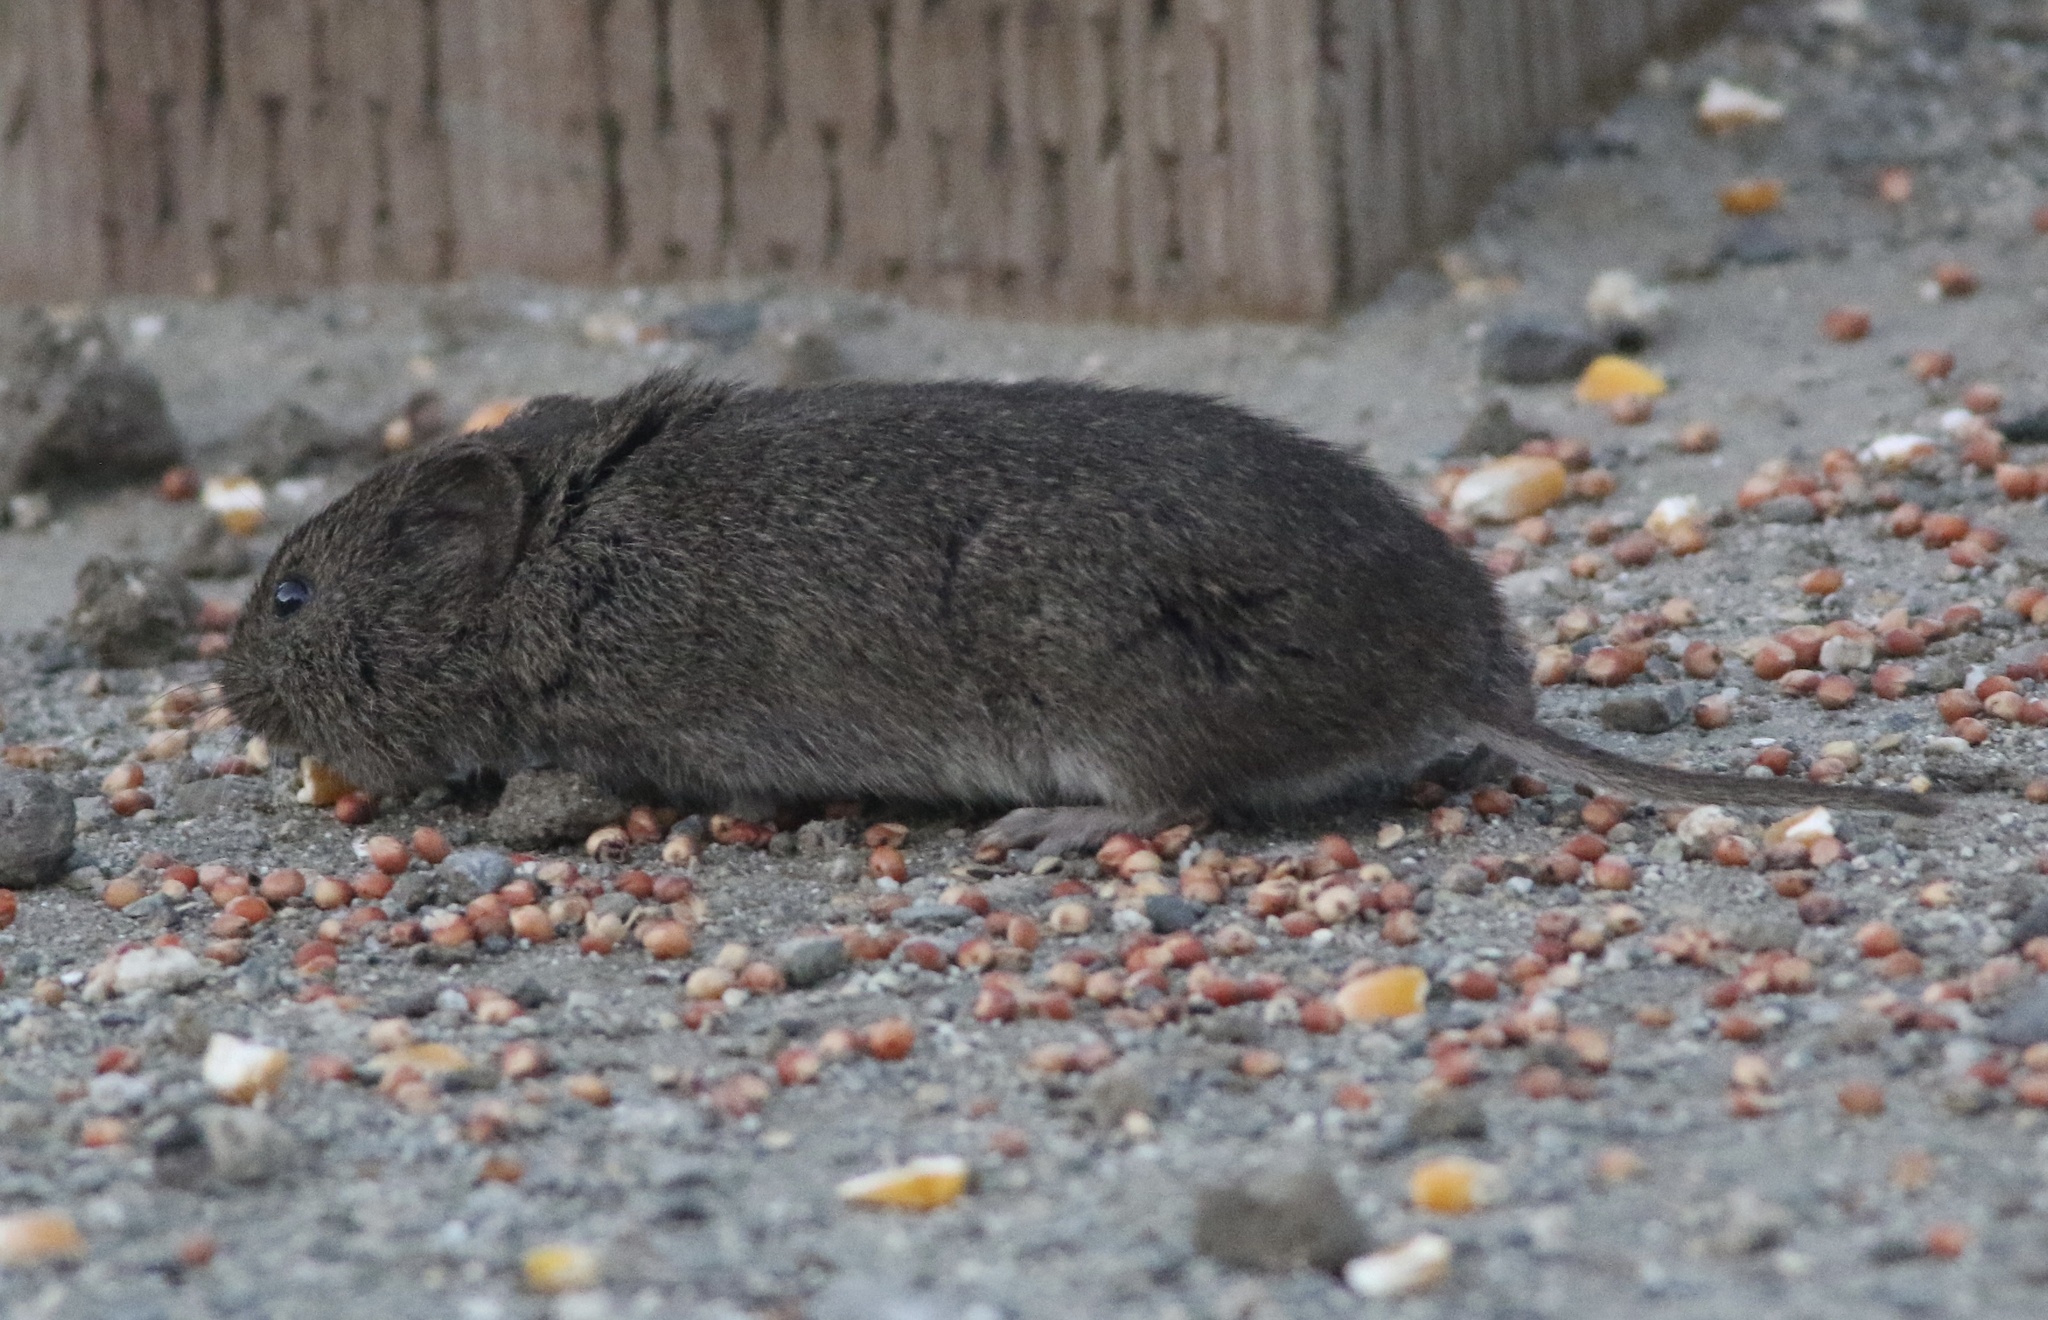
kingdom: Animalia
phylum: Chordata
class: Mammalia
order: Rodentia
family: Cricetidae
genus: Microtus
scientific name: Microtus californicus
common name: California vole
